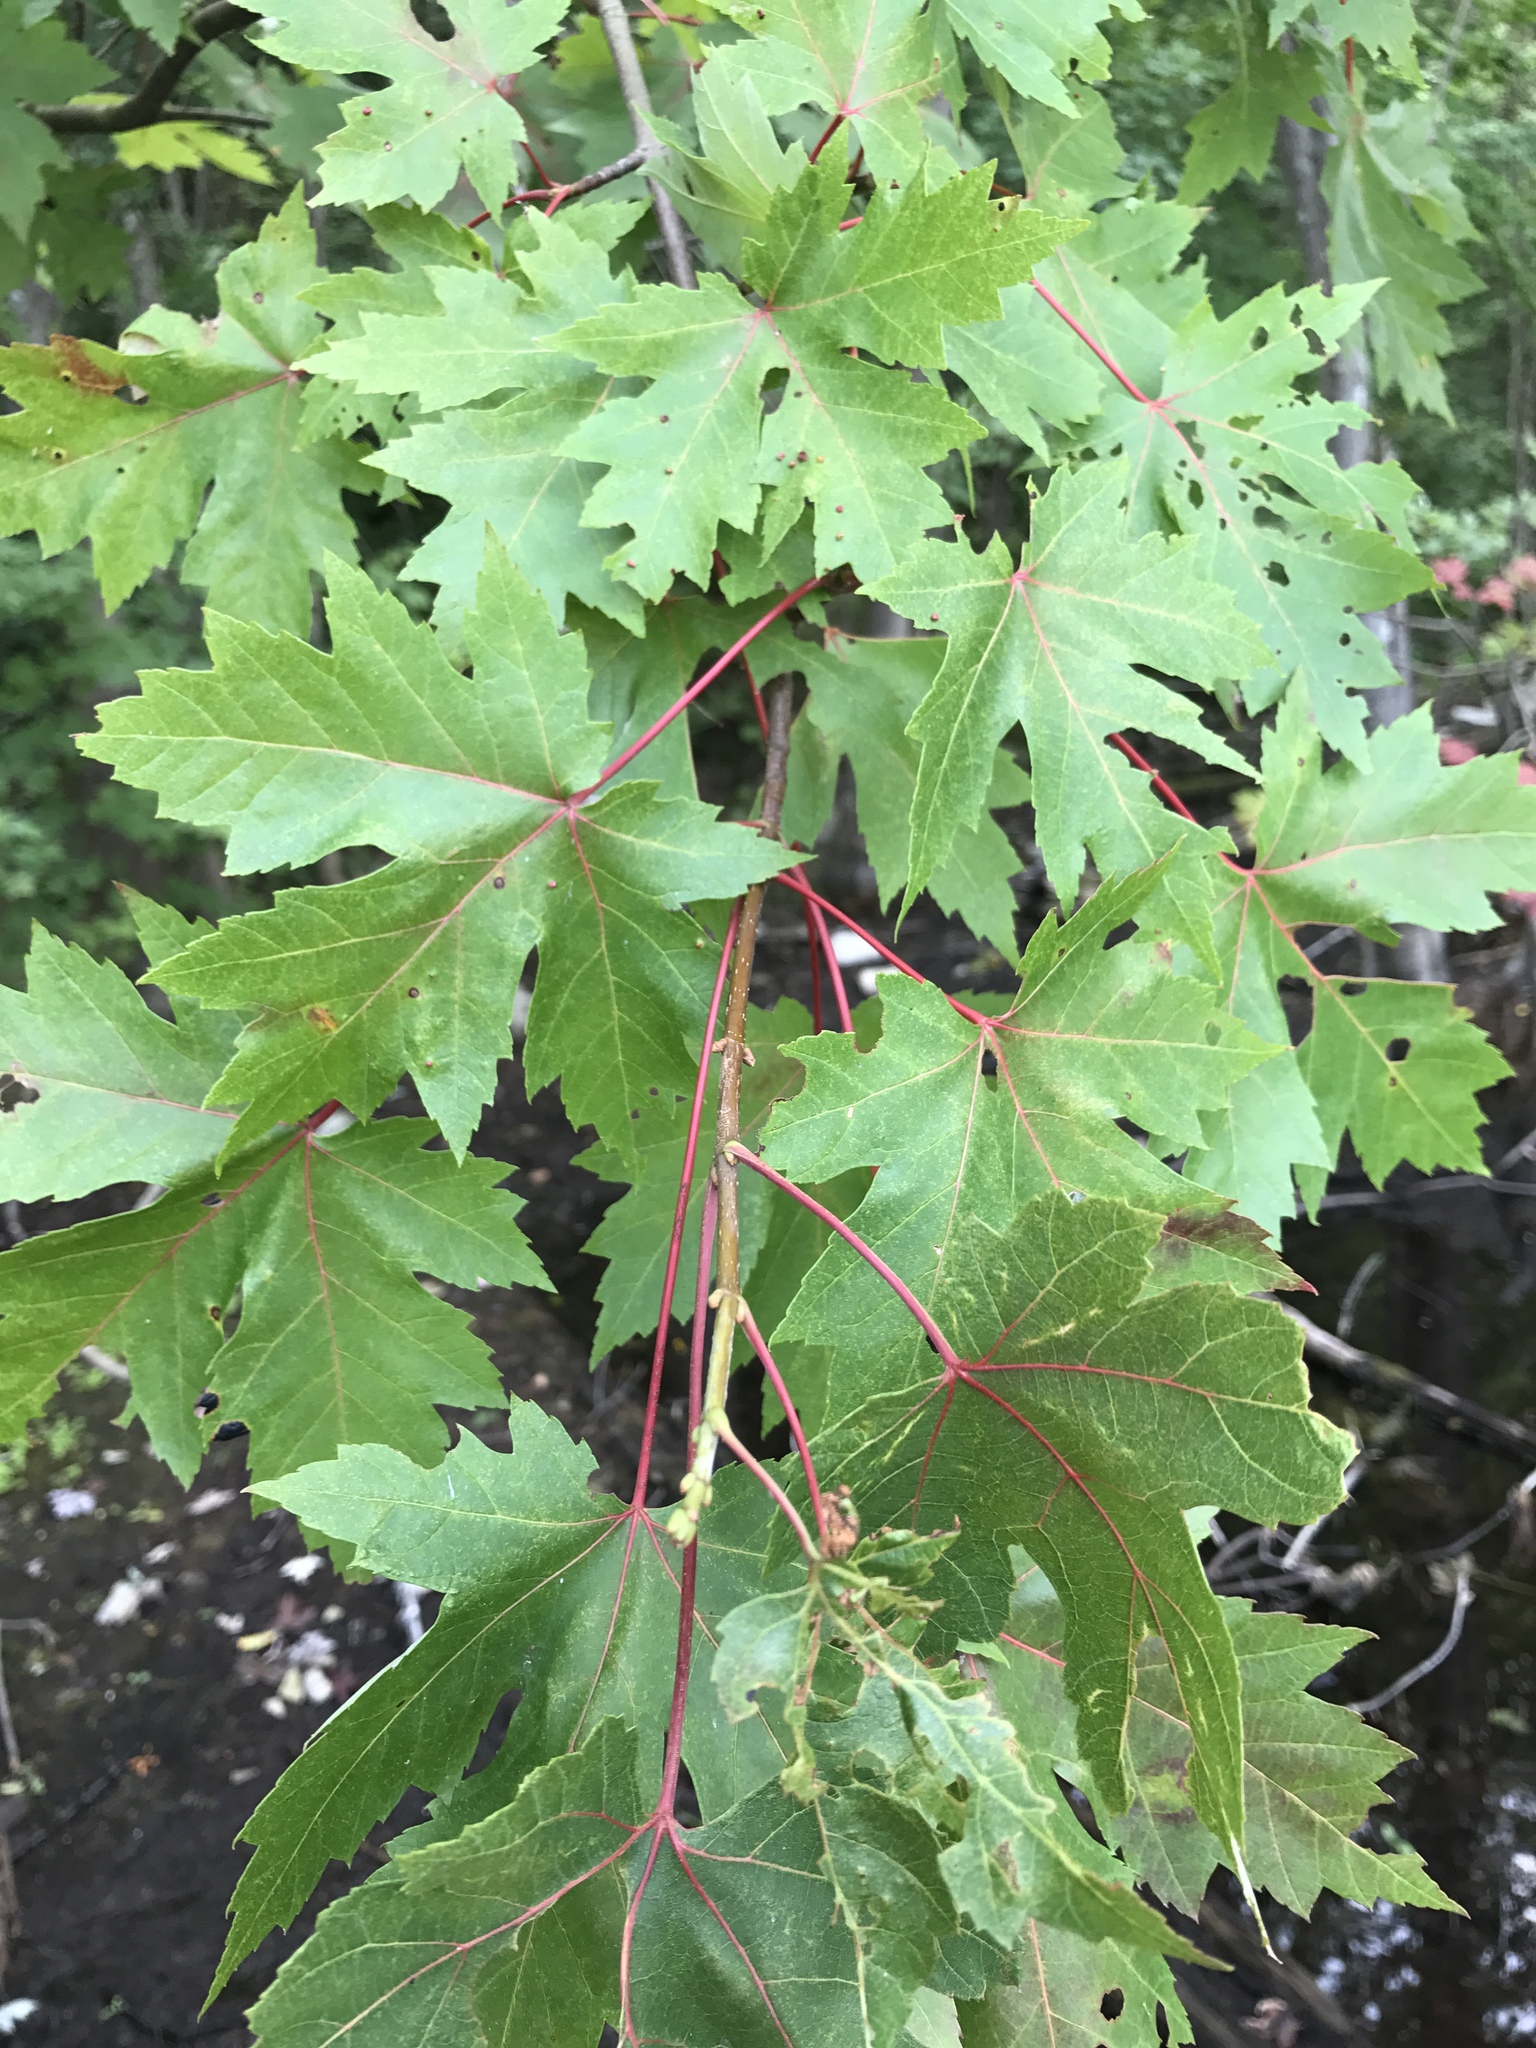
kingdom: Plantae
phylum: Tracheophyta
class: Magnoliopsida
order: Sapindales
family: Sapindaceae
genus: Acer
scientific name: Acer saccharinum
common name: Silver maple
